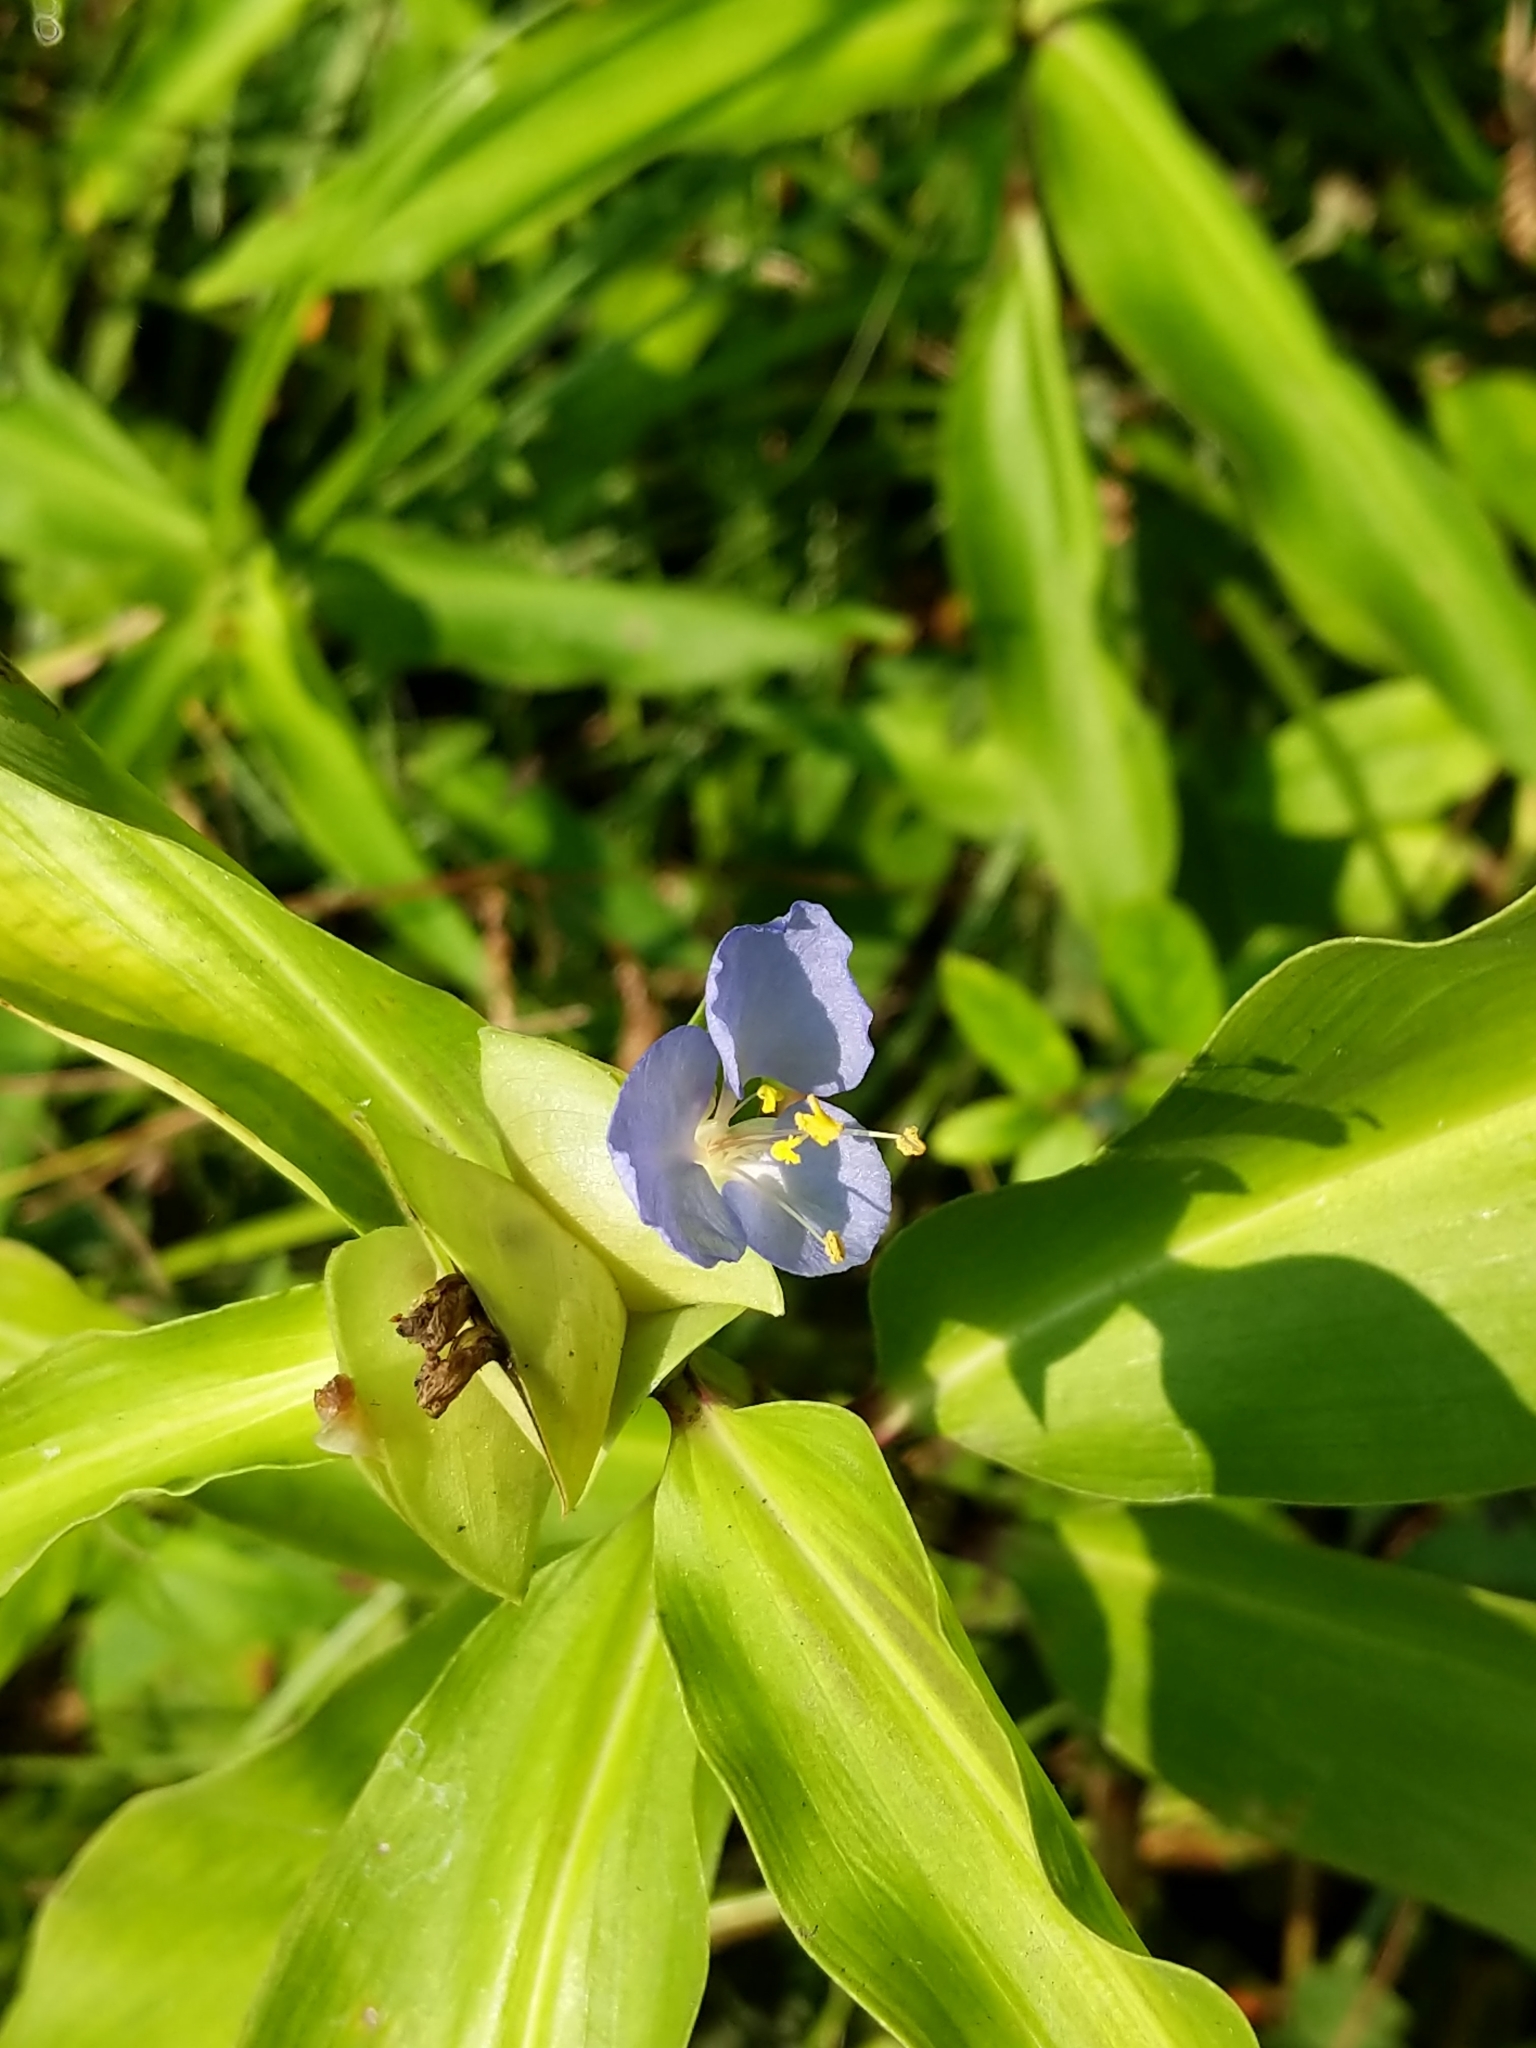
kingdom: Plantae
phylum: Tracheophyta
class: Liliopsida
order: Commelinales
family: Commelinaceae
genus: Commelina
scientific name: Commelina virginica
